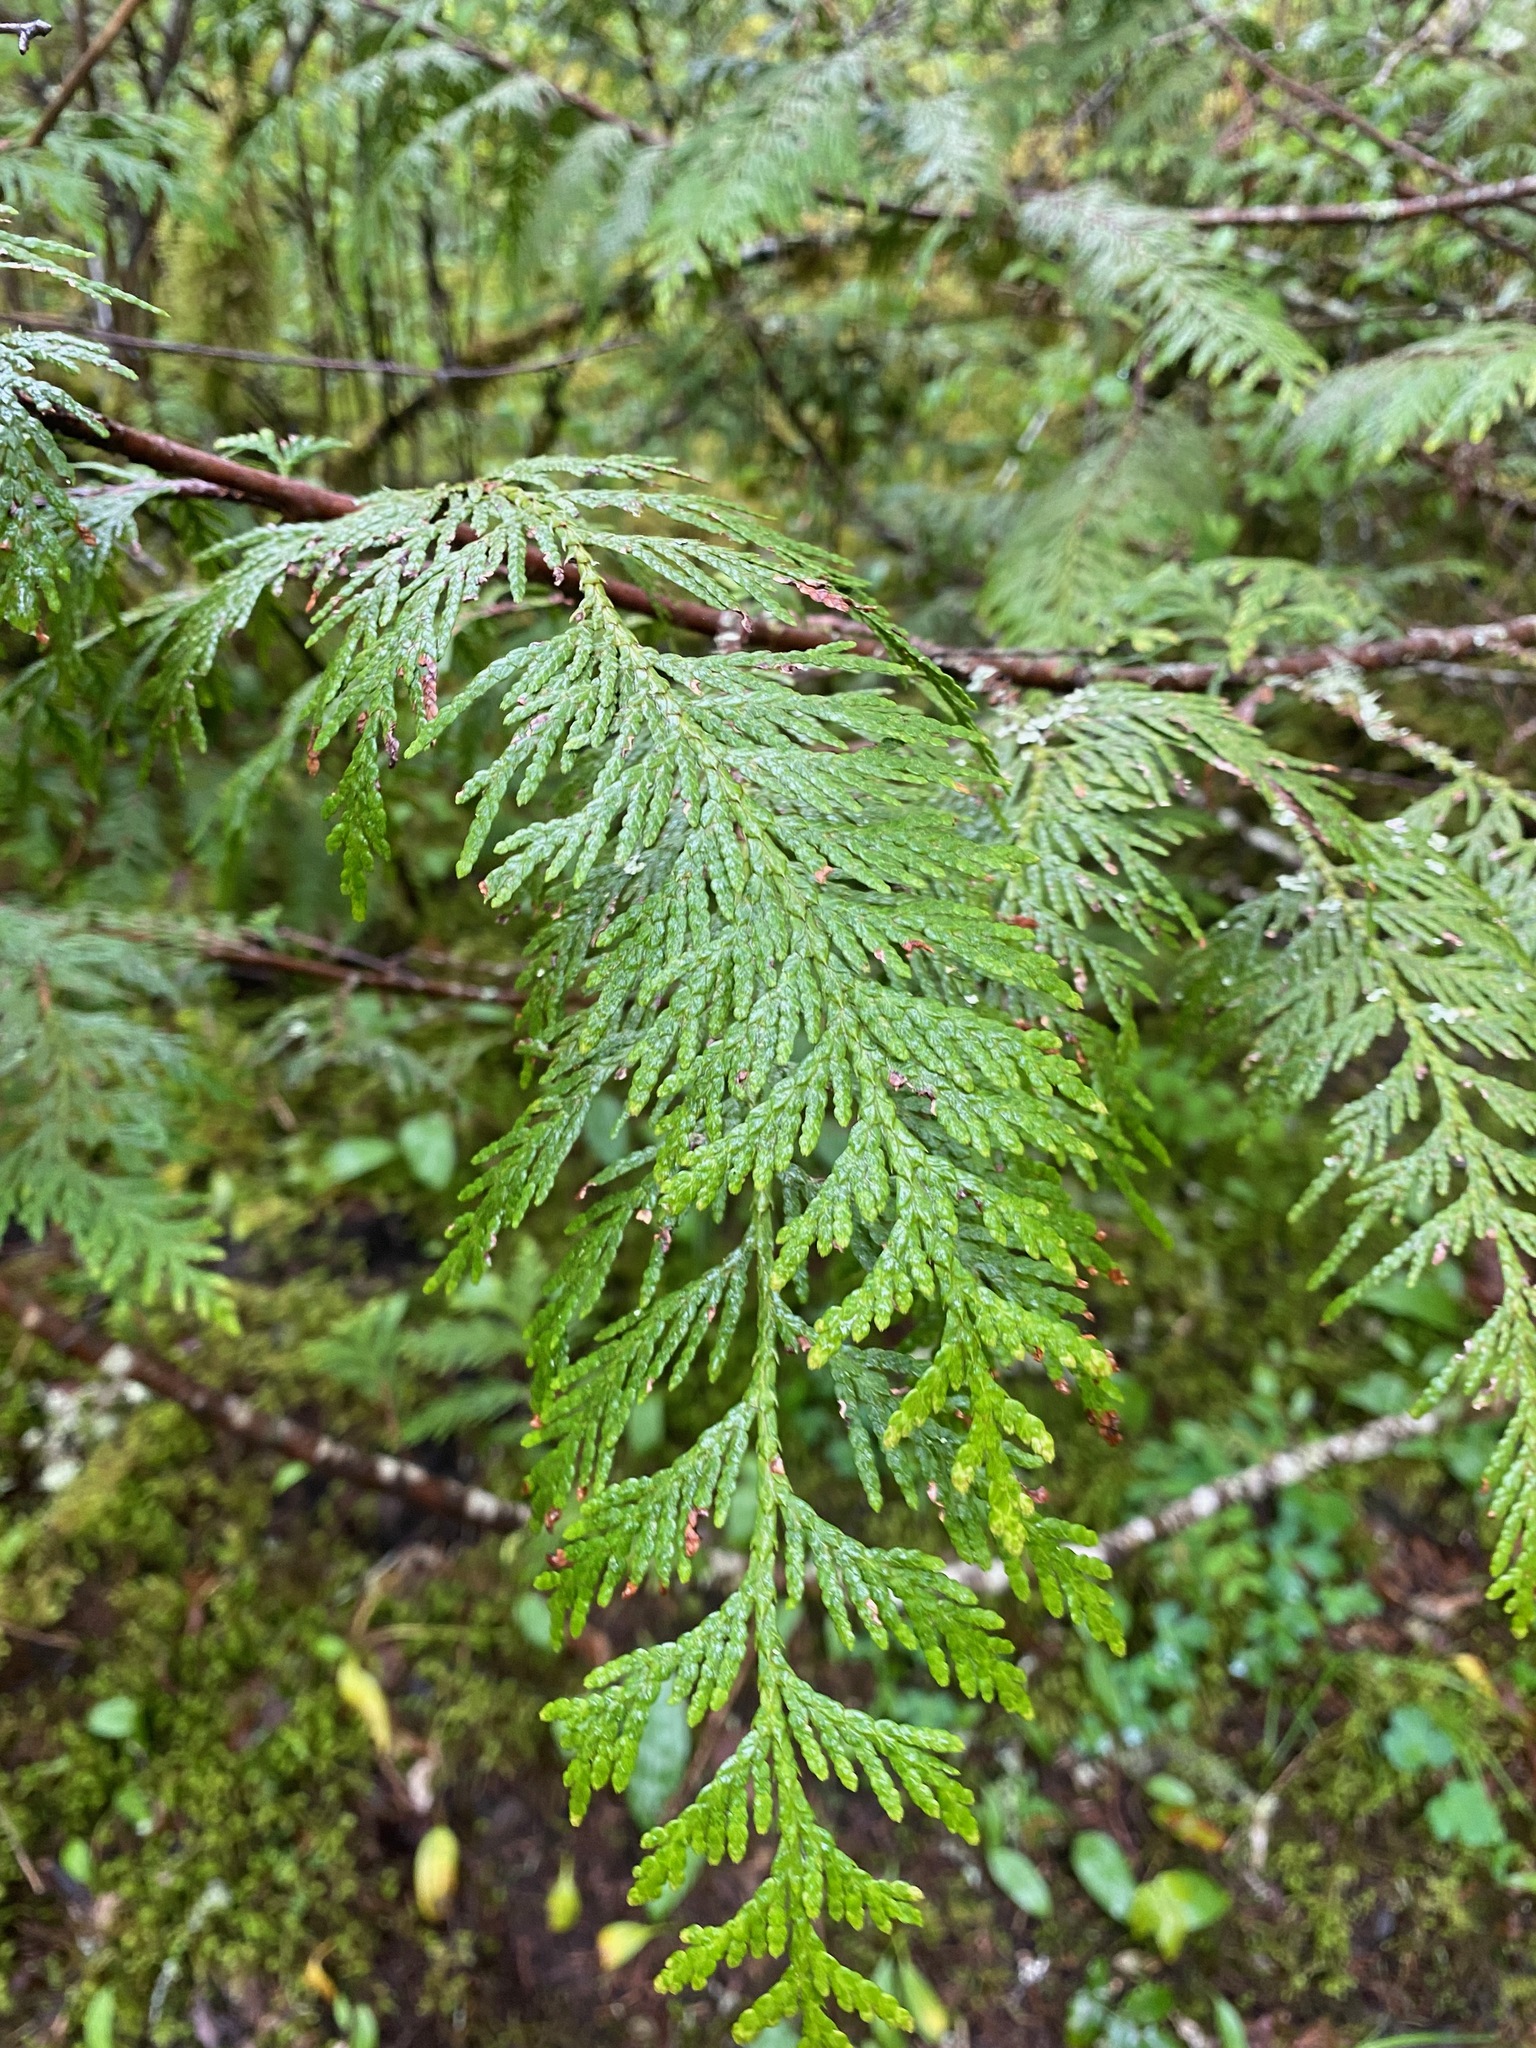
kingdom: Plantae
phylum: Tracheophyta
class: Pinopsida
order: Pinales
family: Cupressaceae
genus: Thuja
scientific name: Thuja plicata
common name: Western red-cedar
